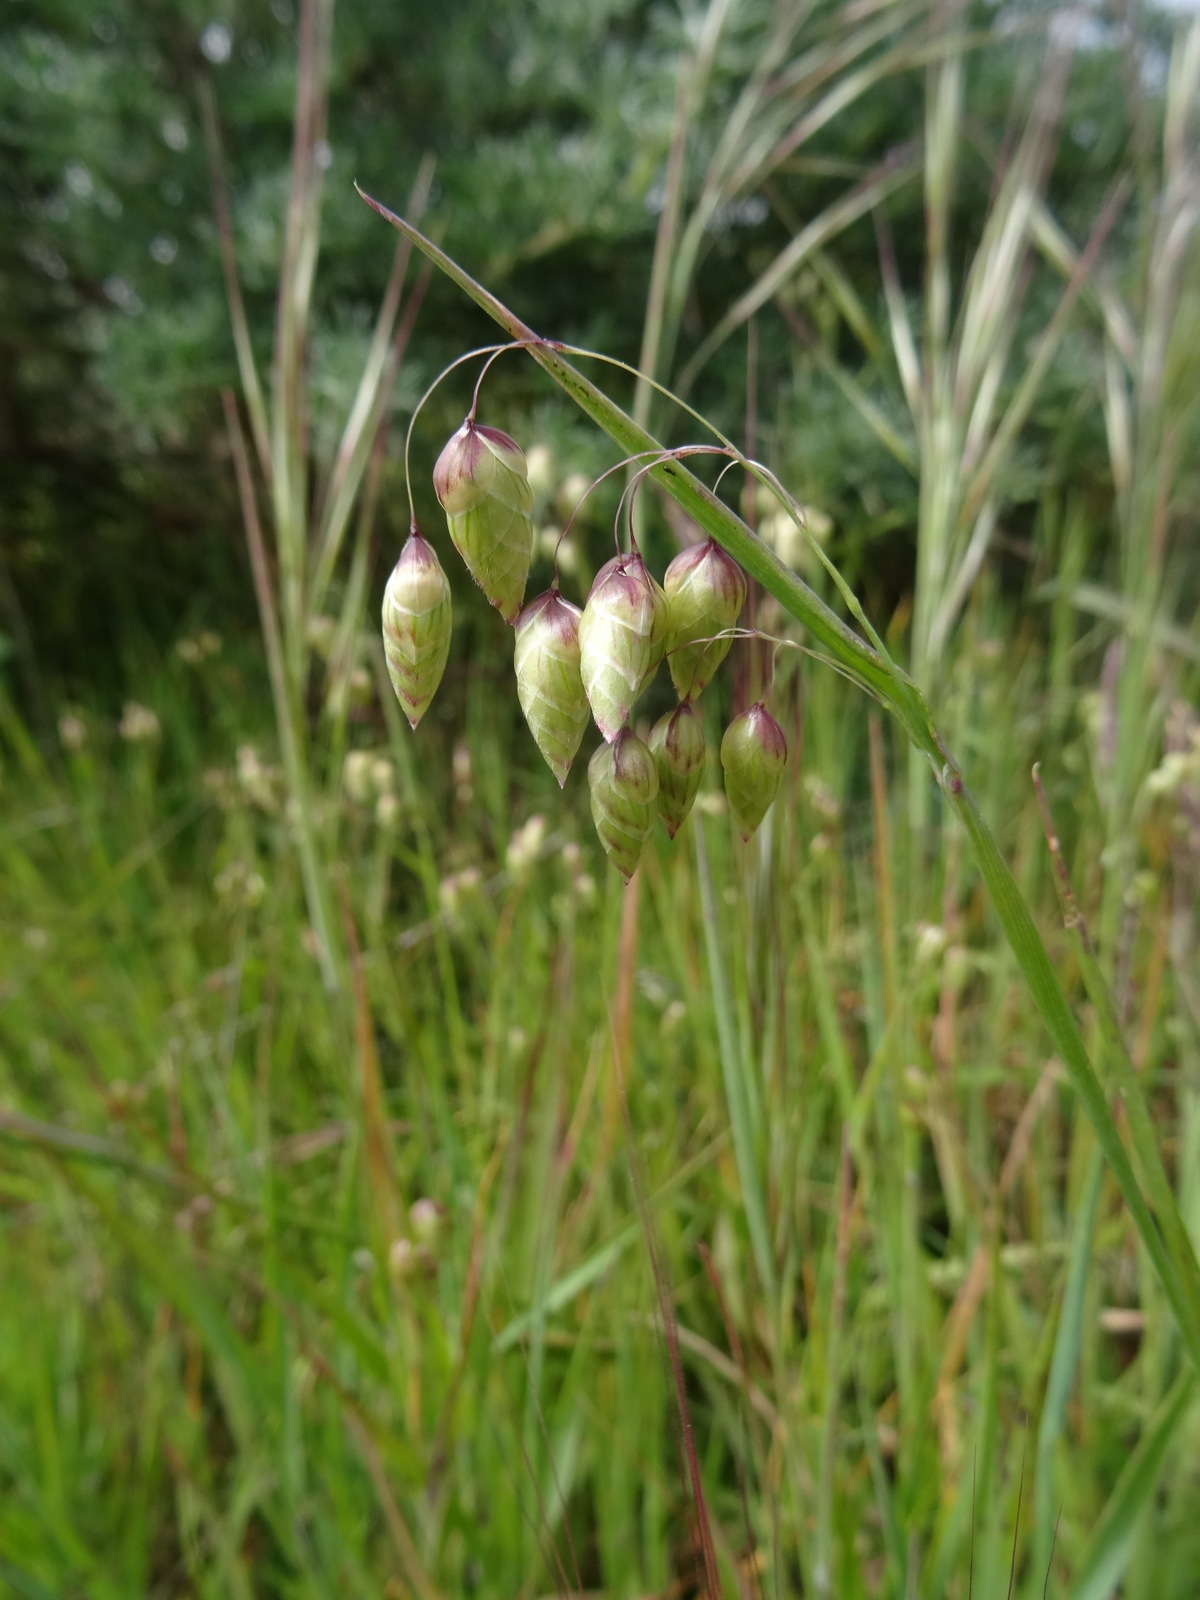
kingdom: Plantae
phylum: Tracheophyta
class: Liliopsida
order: Poales
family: Poaceae
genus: Briza
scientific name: Briza maxima
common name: Big quakinggrass
